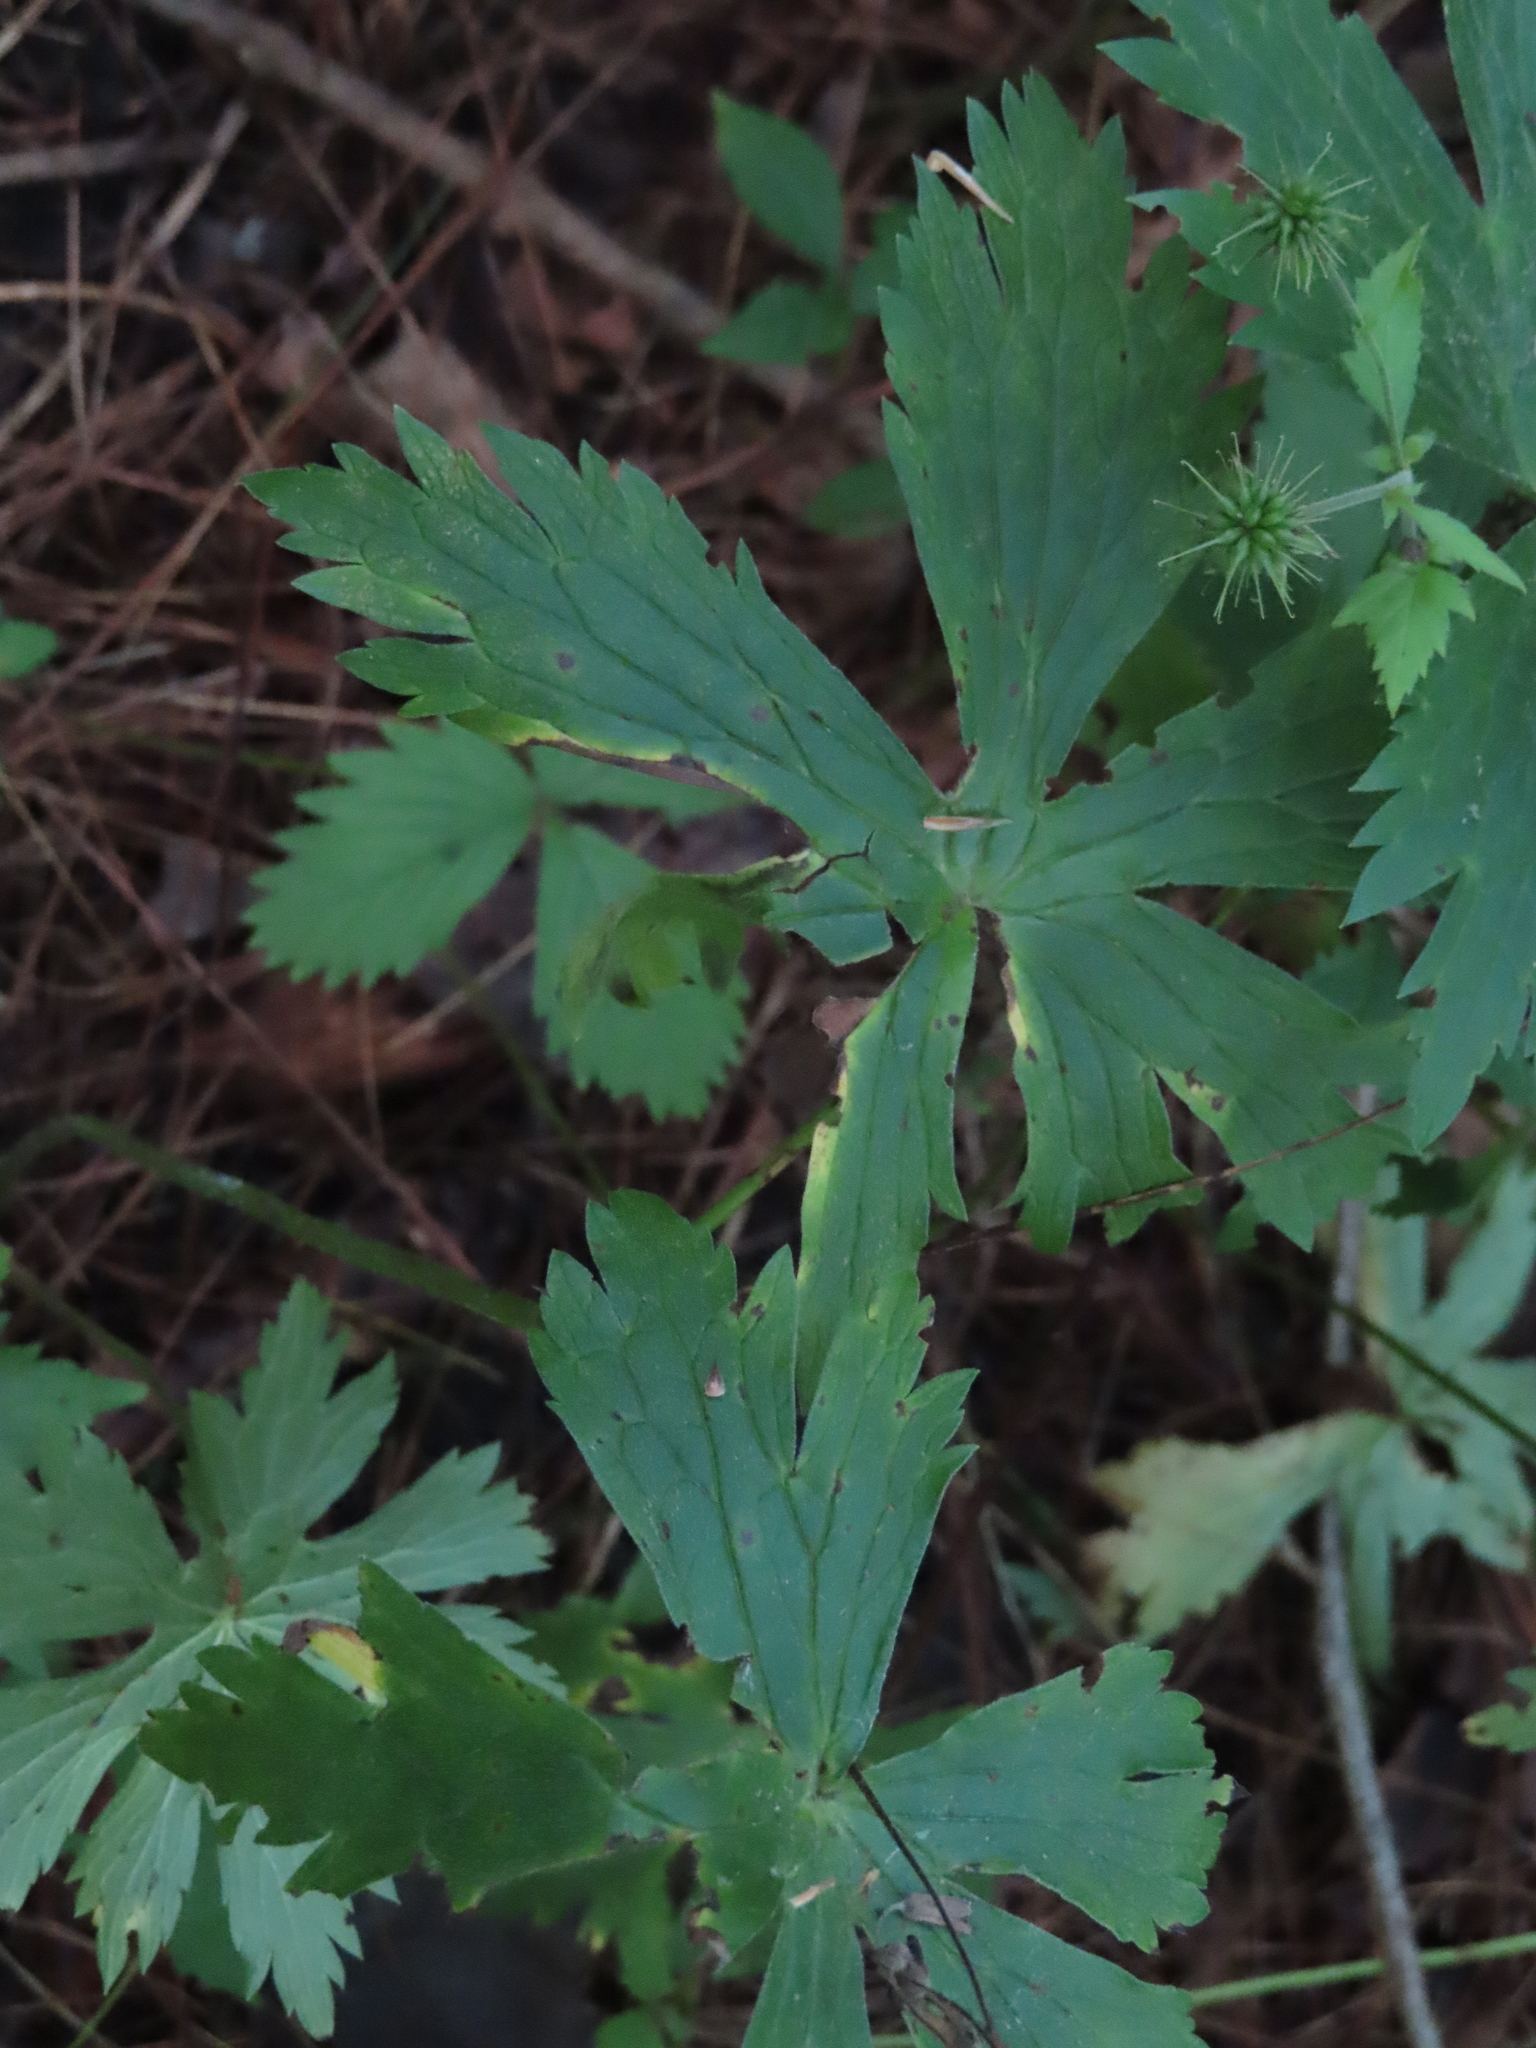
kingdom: Plantae
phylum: Tracheophyta
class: Magnoliopsida
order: Geraniales
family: Geraniaceae
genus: Geranium
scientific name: Geranium maculatum
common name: Spotted geranium
